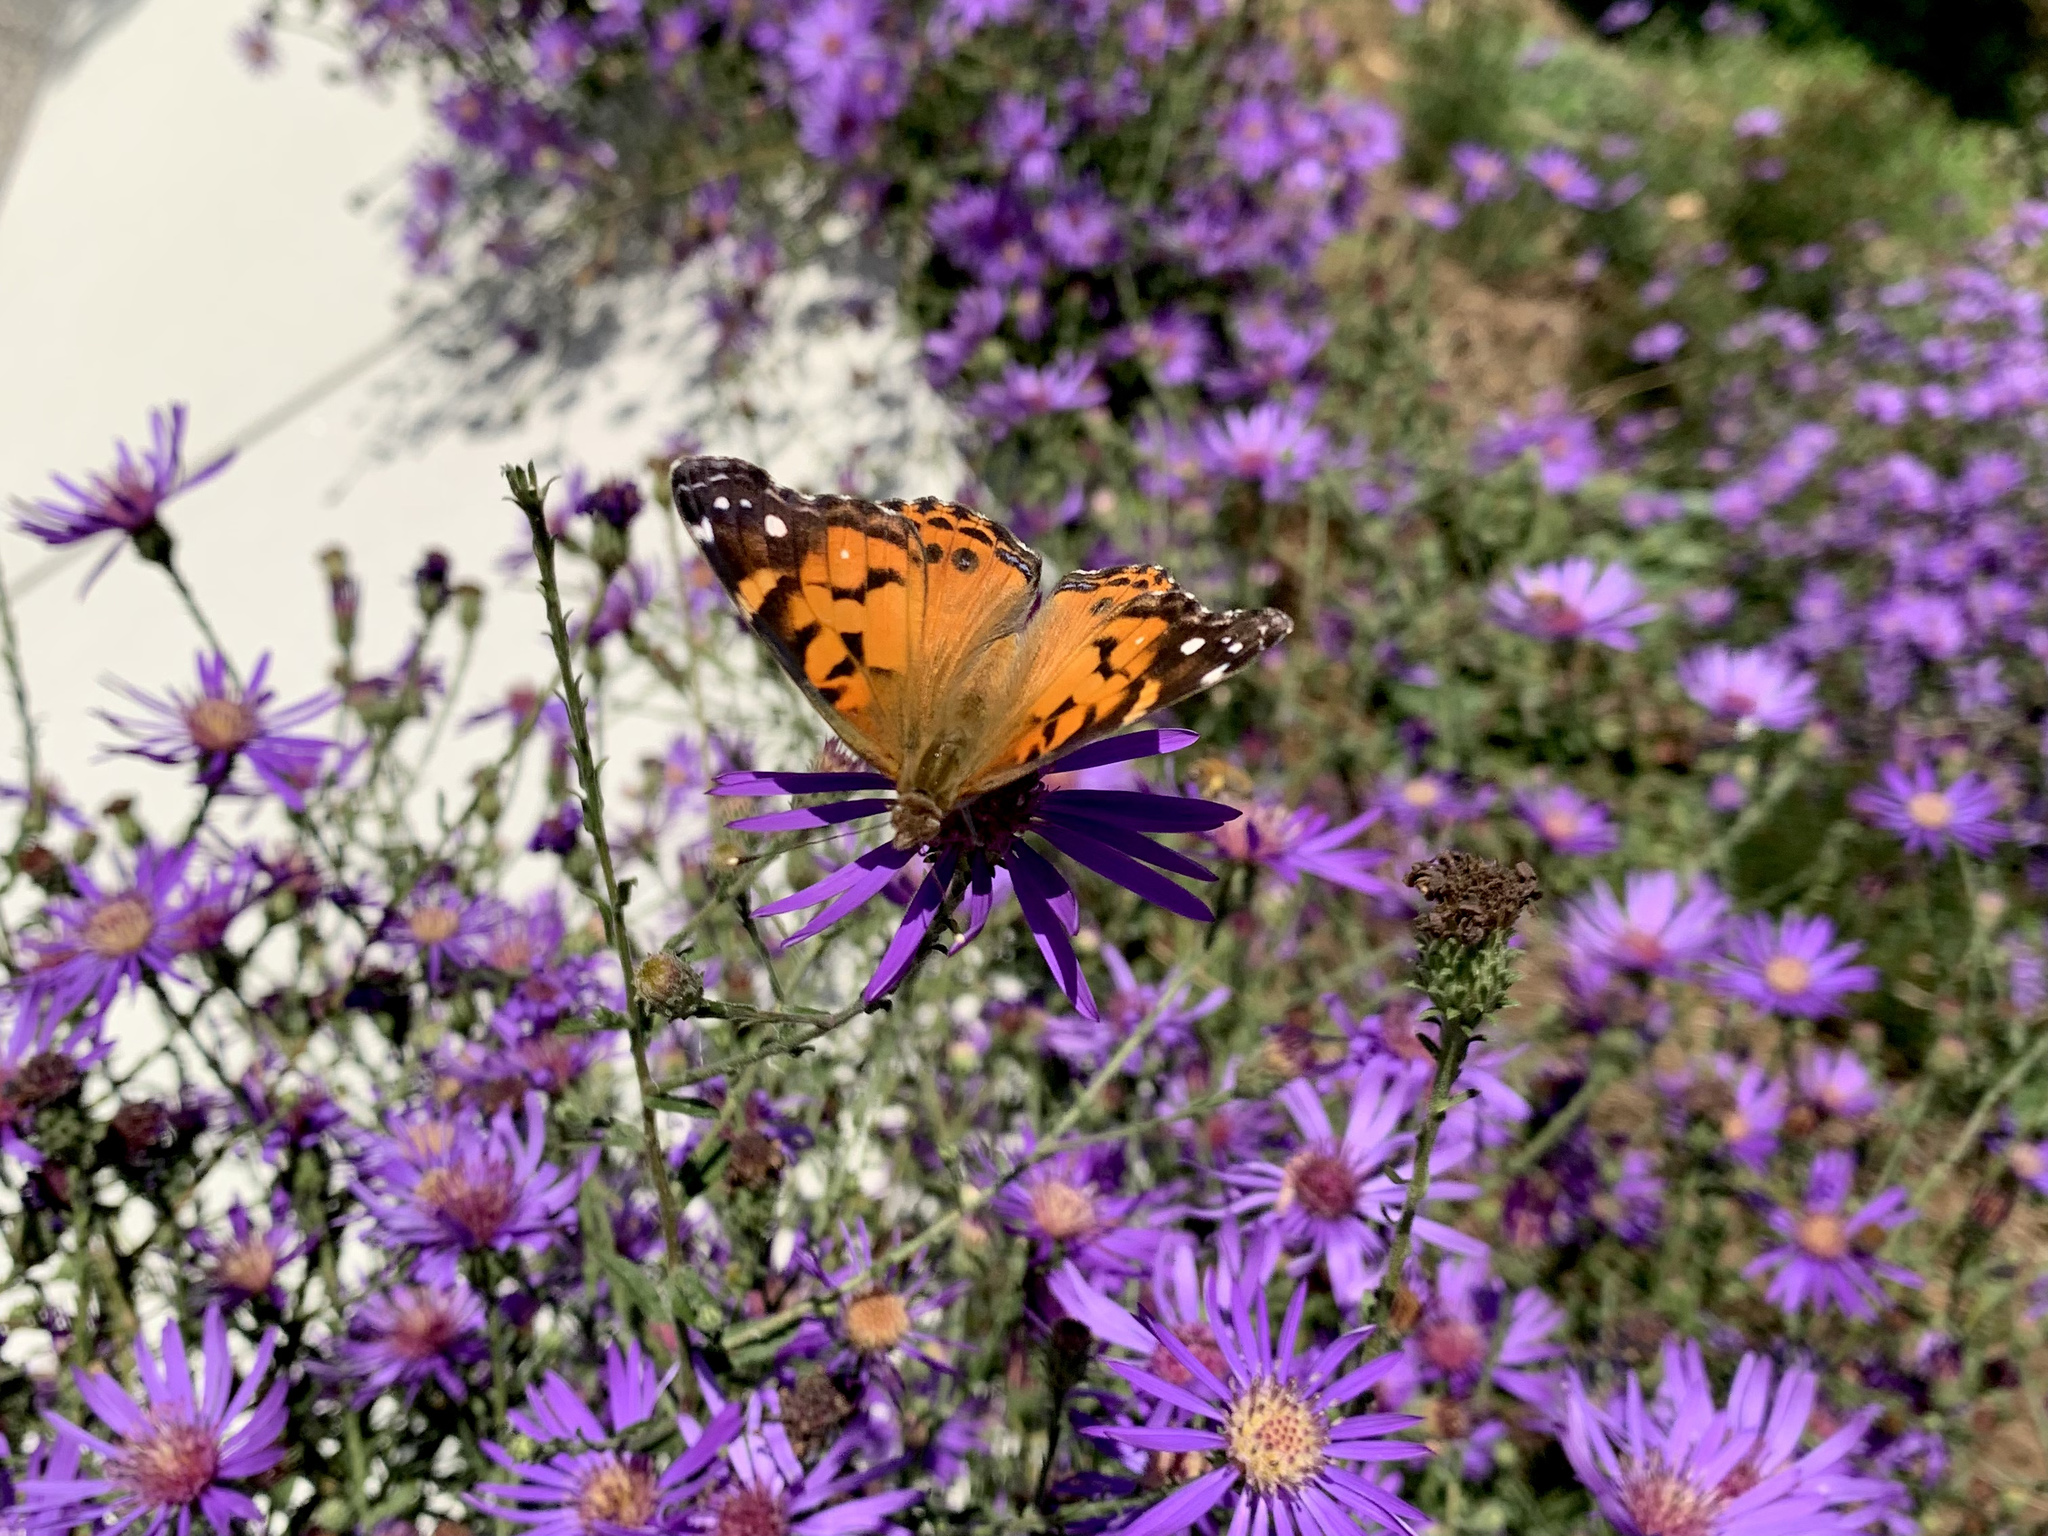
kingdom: Animalia
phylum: Arthropoda
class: Insecta
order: Lepidoptera
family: Nymphalidae
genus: Vanessa
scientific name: Vanessa virginiensis
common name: American lady
